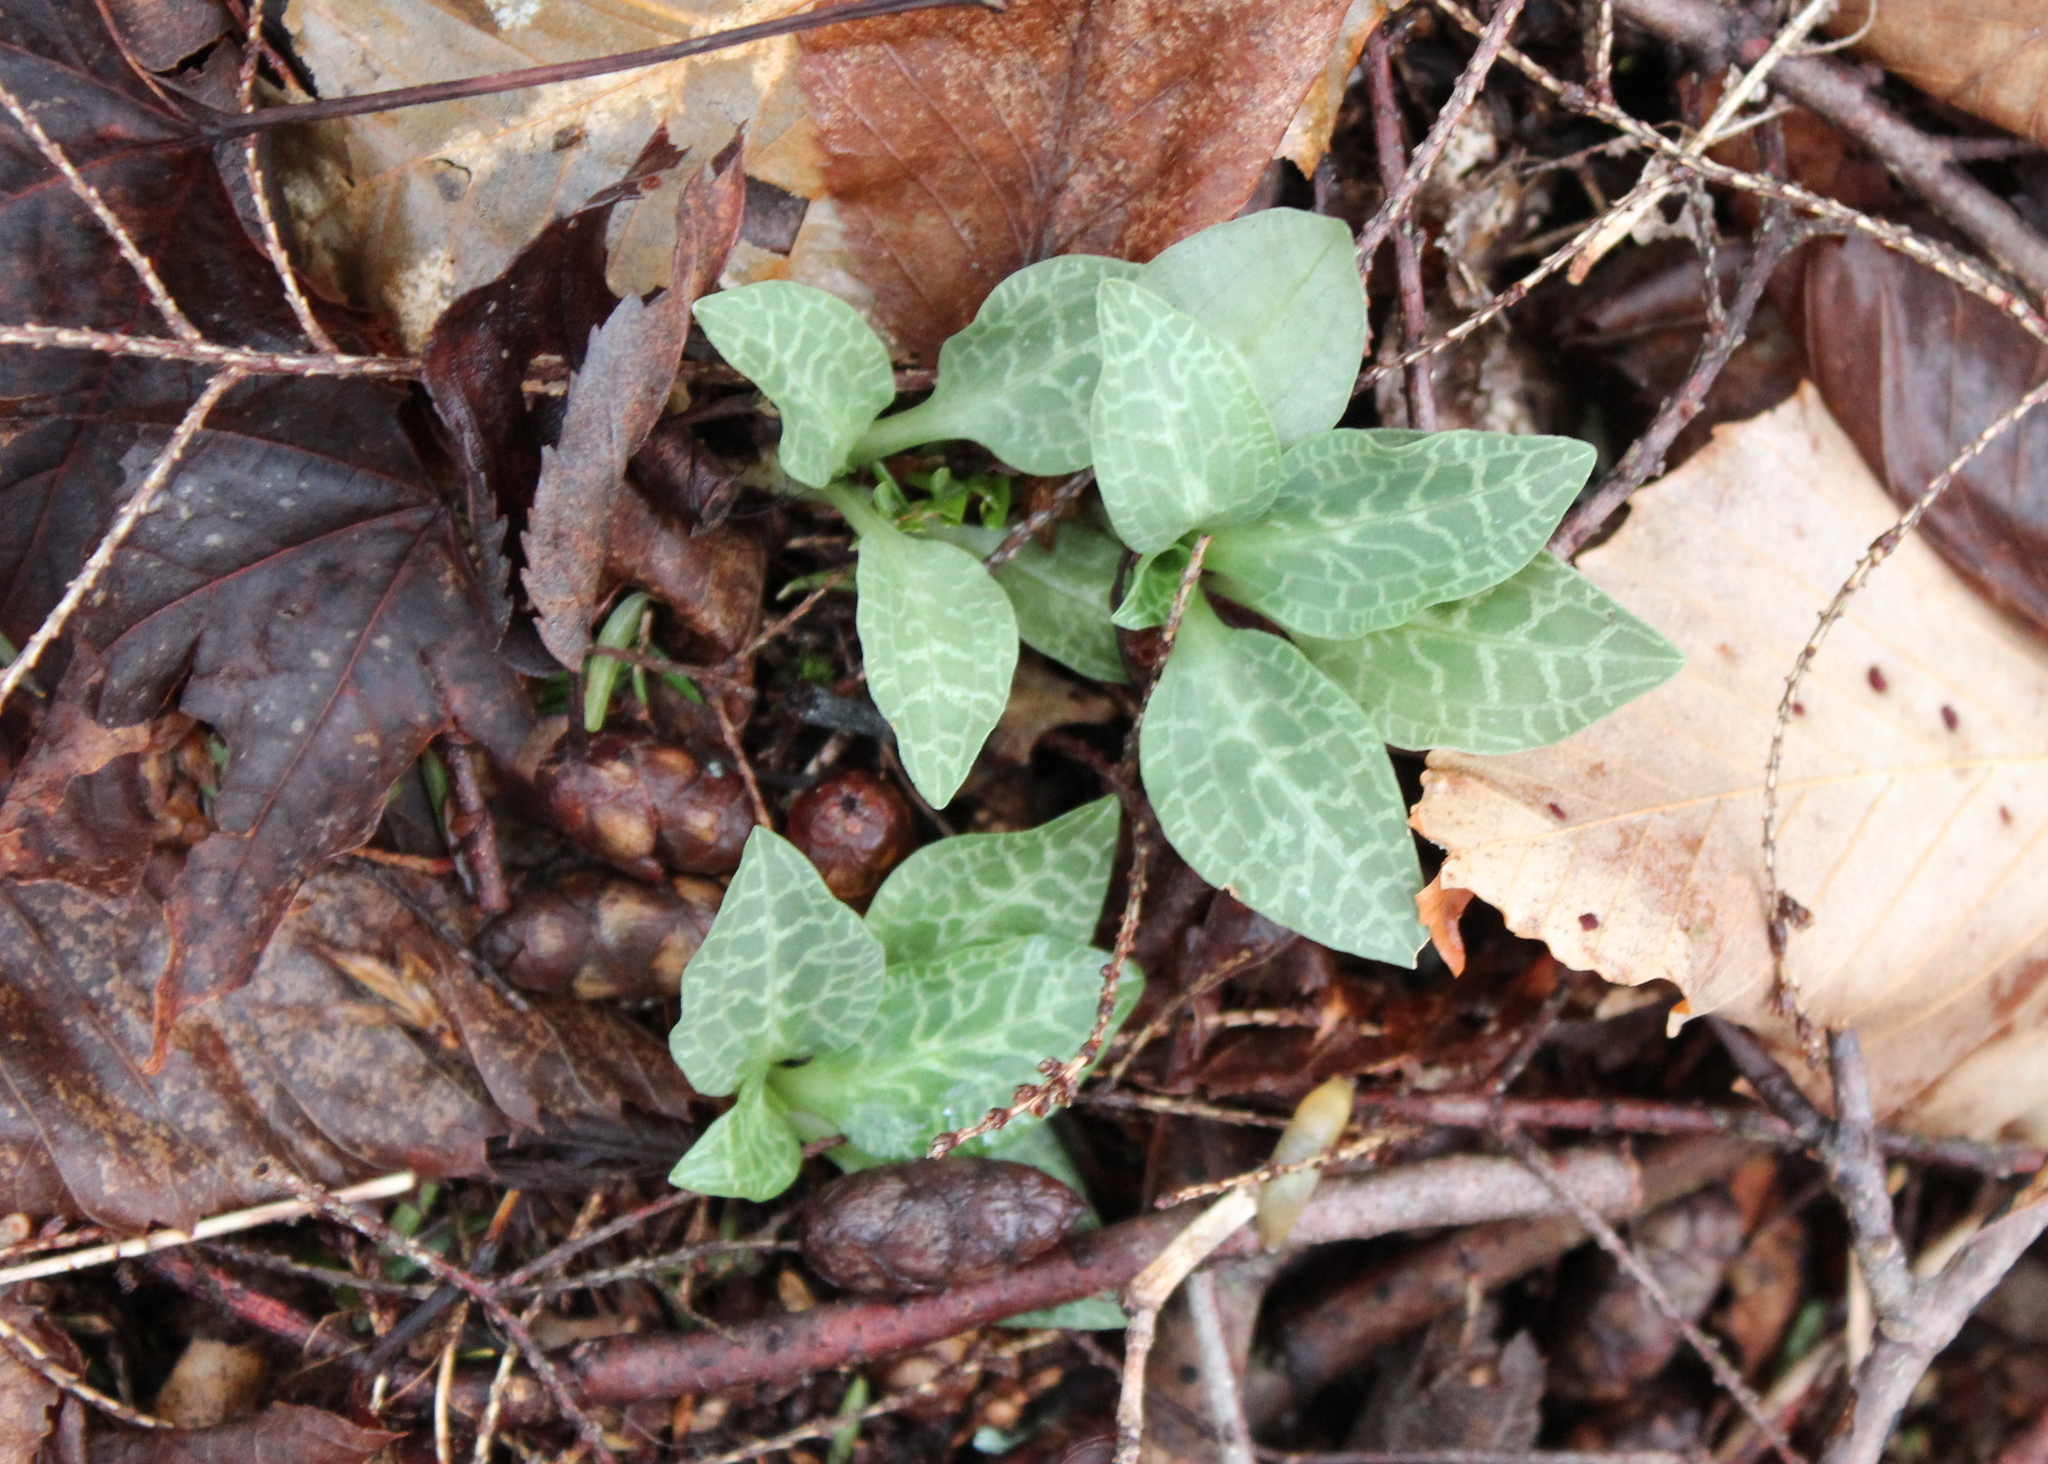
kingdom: Plantae
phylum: Tracheophyta
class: Liliopsida
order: Asparagales
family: Orchidaceae
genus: Goodyera
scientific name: Goodyera tesselata
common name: Checkered rattlesnake-plantain
